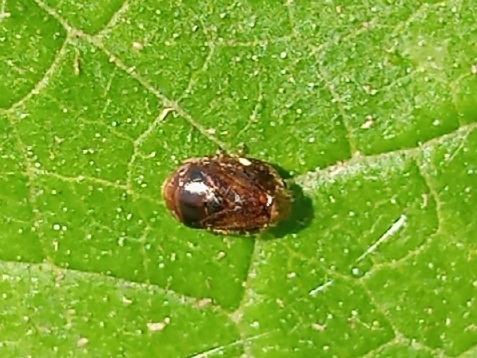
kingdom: Animalia
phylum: Arthropoda
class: Insecta
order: Hemiptera
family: Clastopteridae
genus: Clastoptera
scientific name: Clastoptera xanthocephala
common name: Sunflower spittlebug
